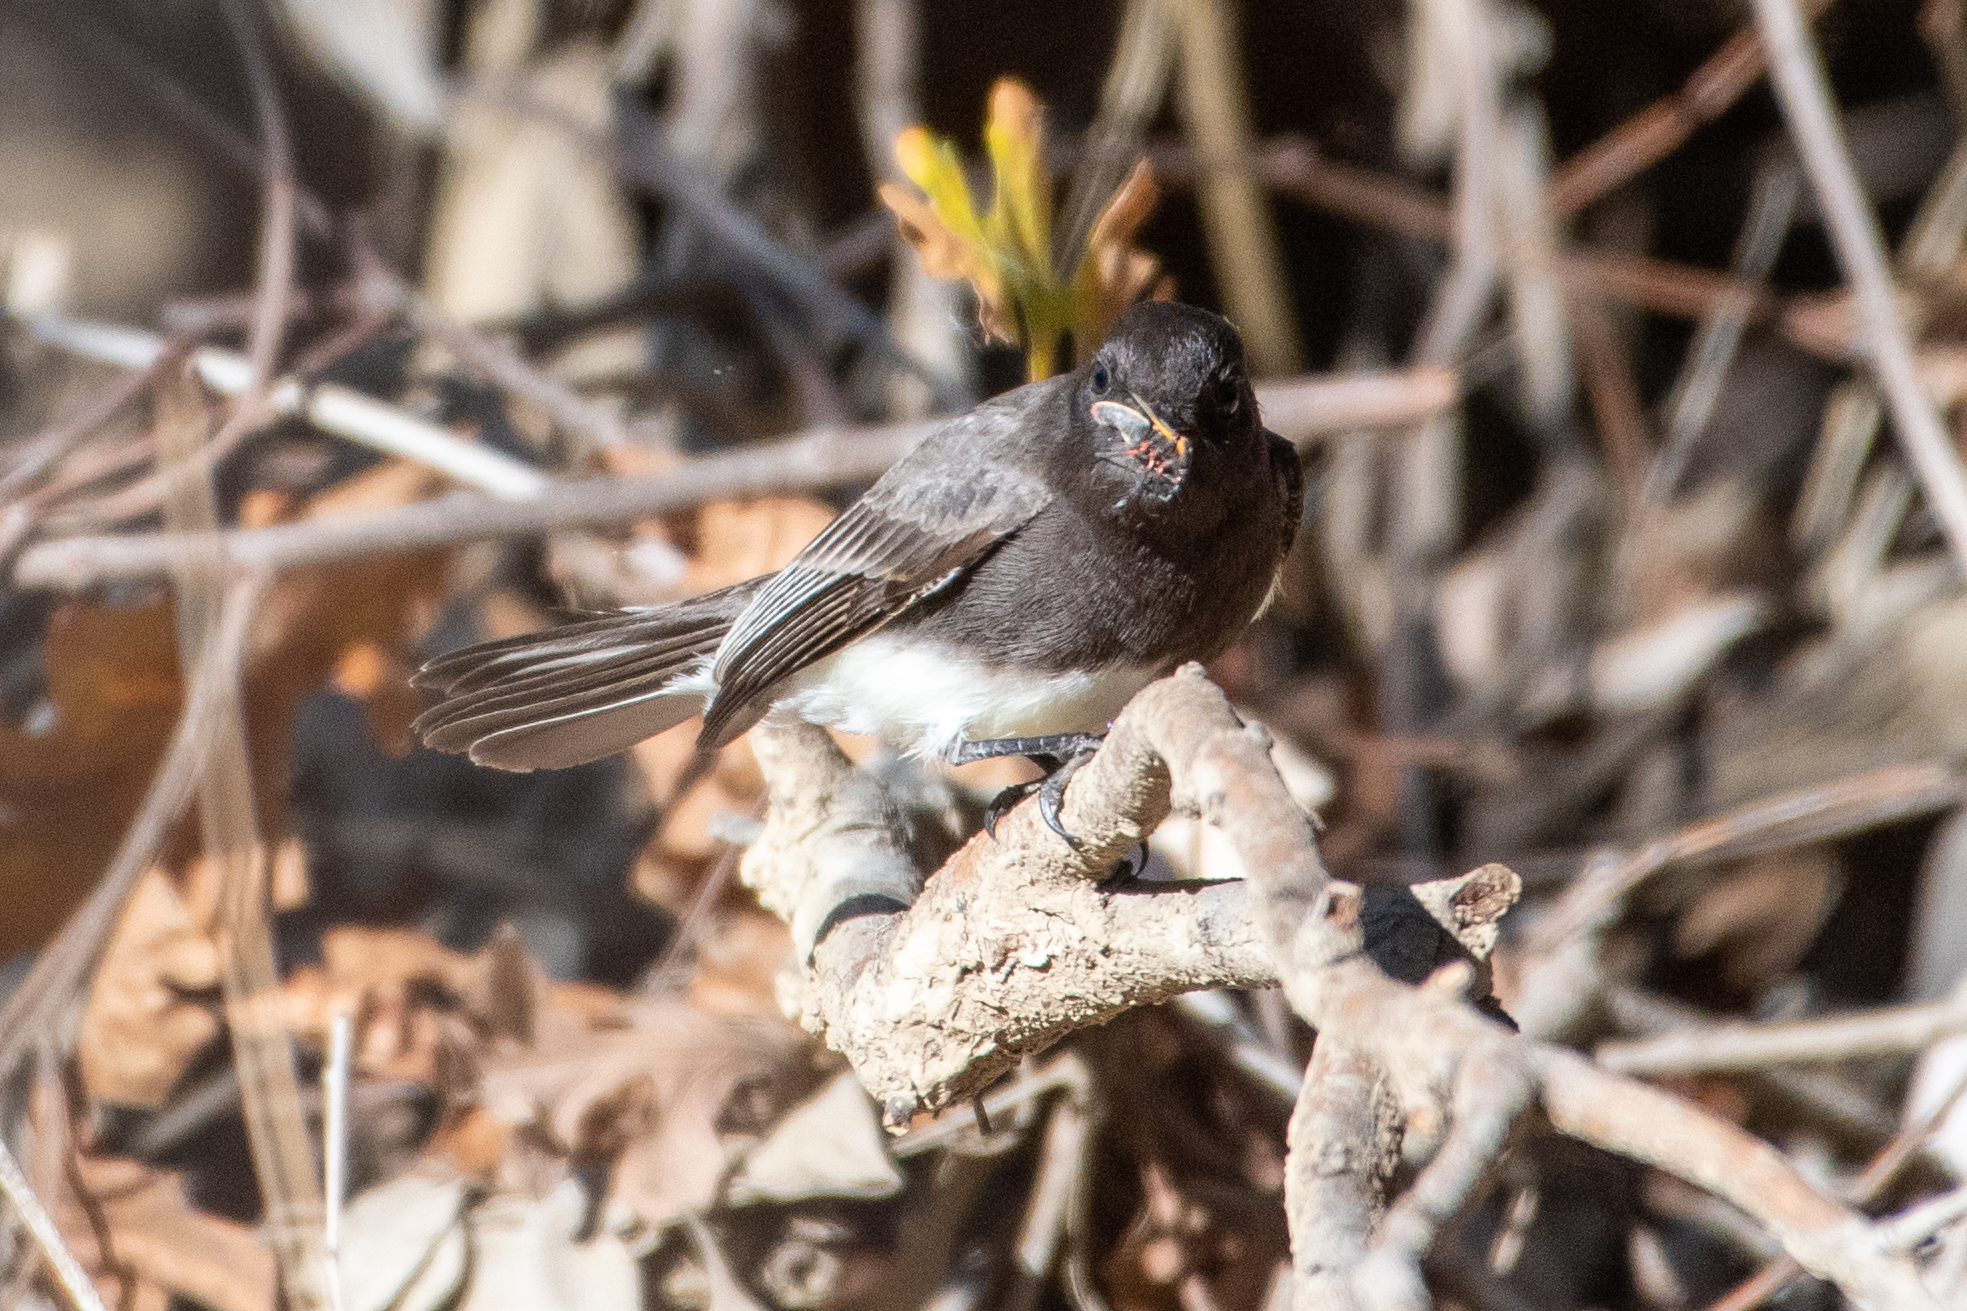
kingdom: Animalia
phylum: Chordata
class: Aves
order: Passeriformes
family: Tyrannidae
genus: Sayornis
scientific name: Sayornis nigricans
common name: Black phoebe
